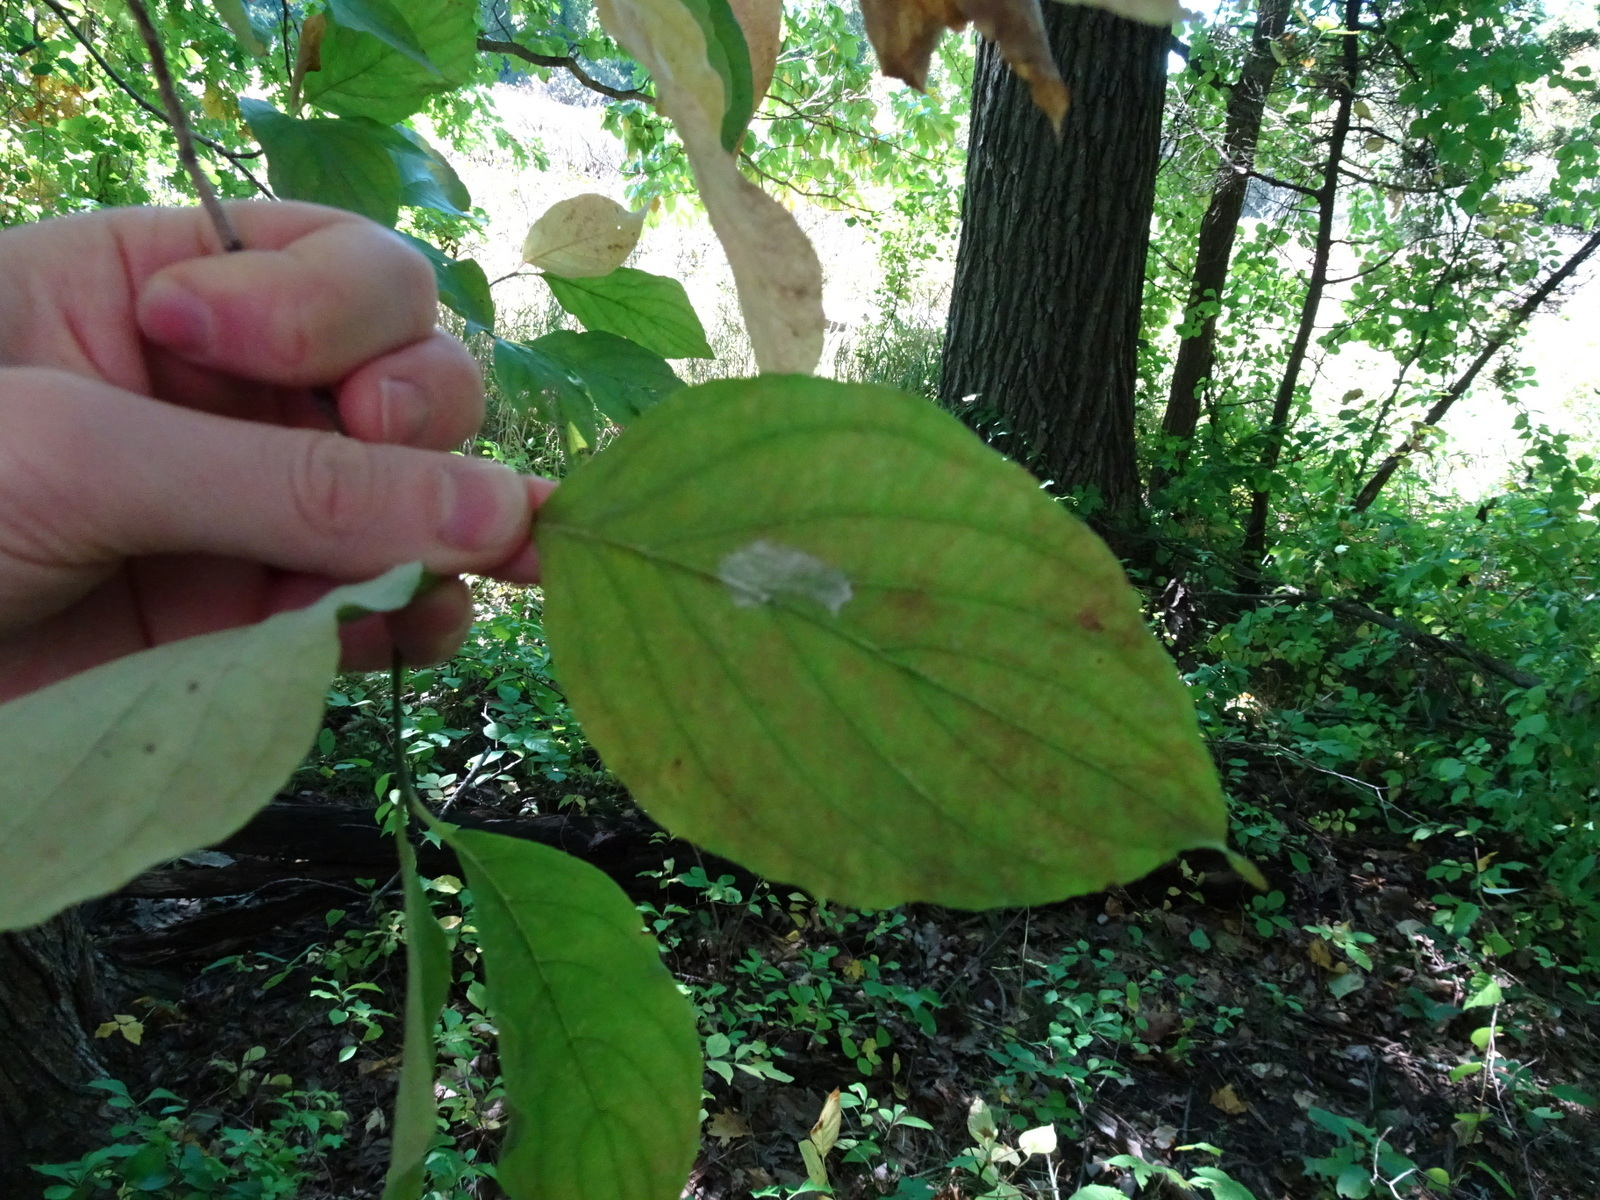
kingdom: Plantae
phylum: Tracheophyta
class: Magnoliopsida
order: Cornales
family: Cornaceae
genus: Cornus
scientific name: Cornus florida
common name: Flowering dogwood
